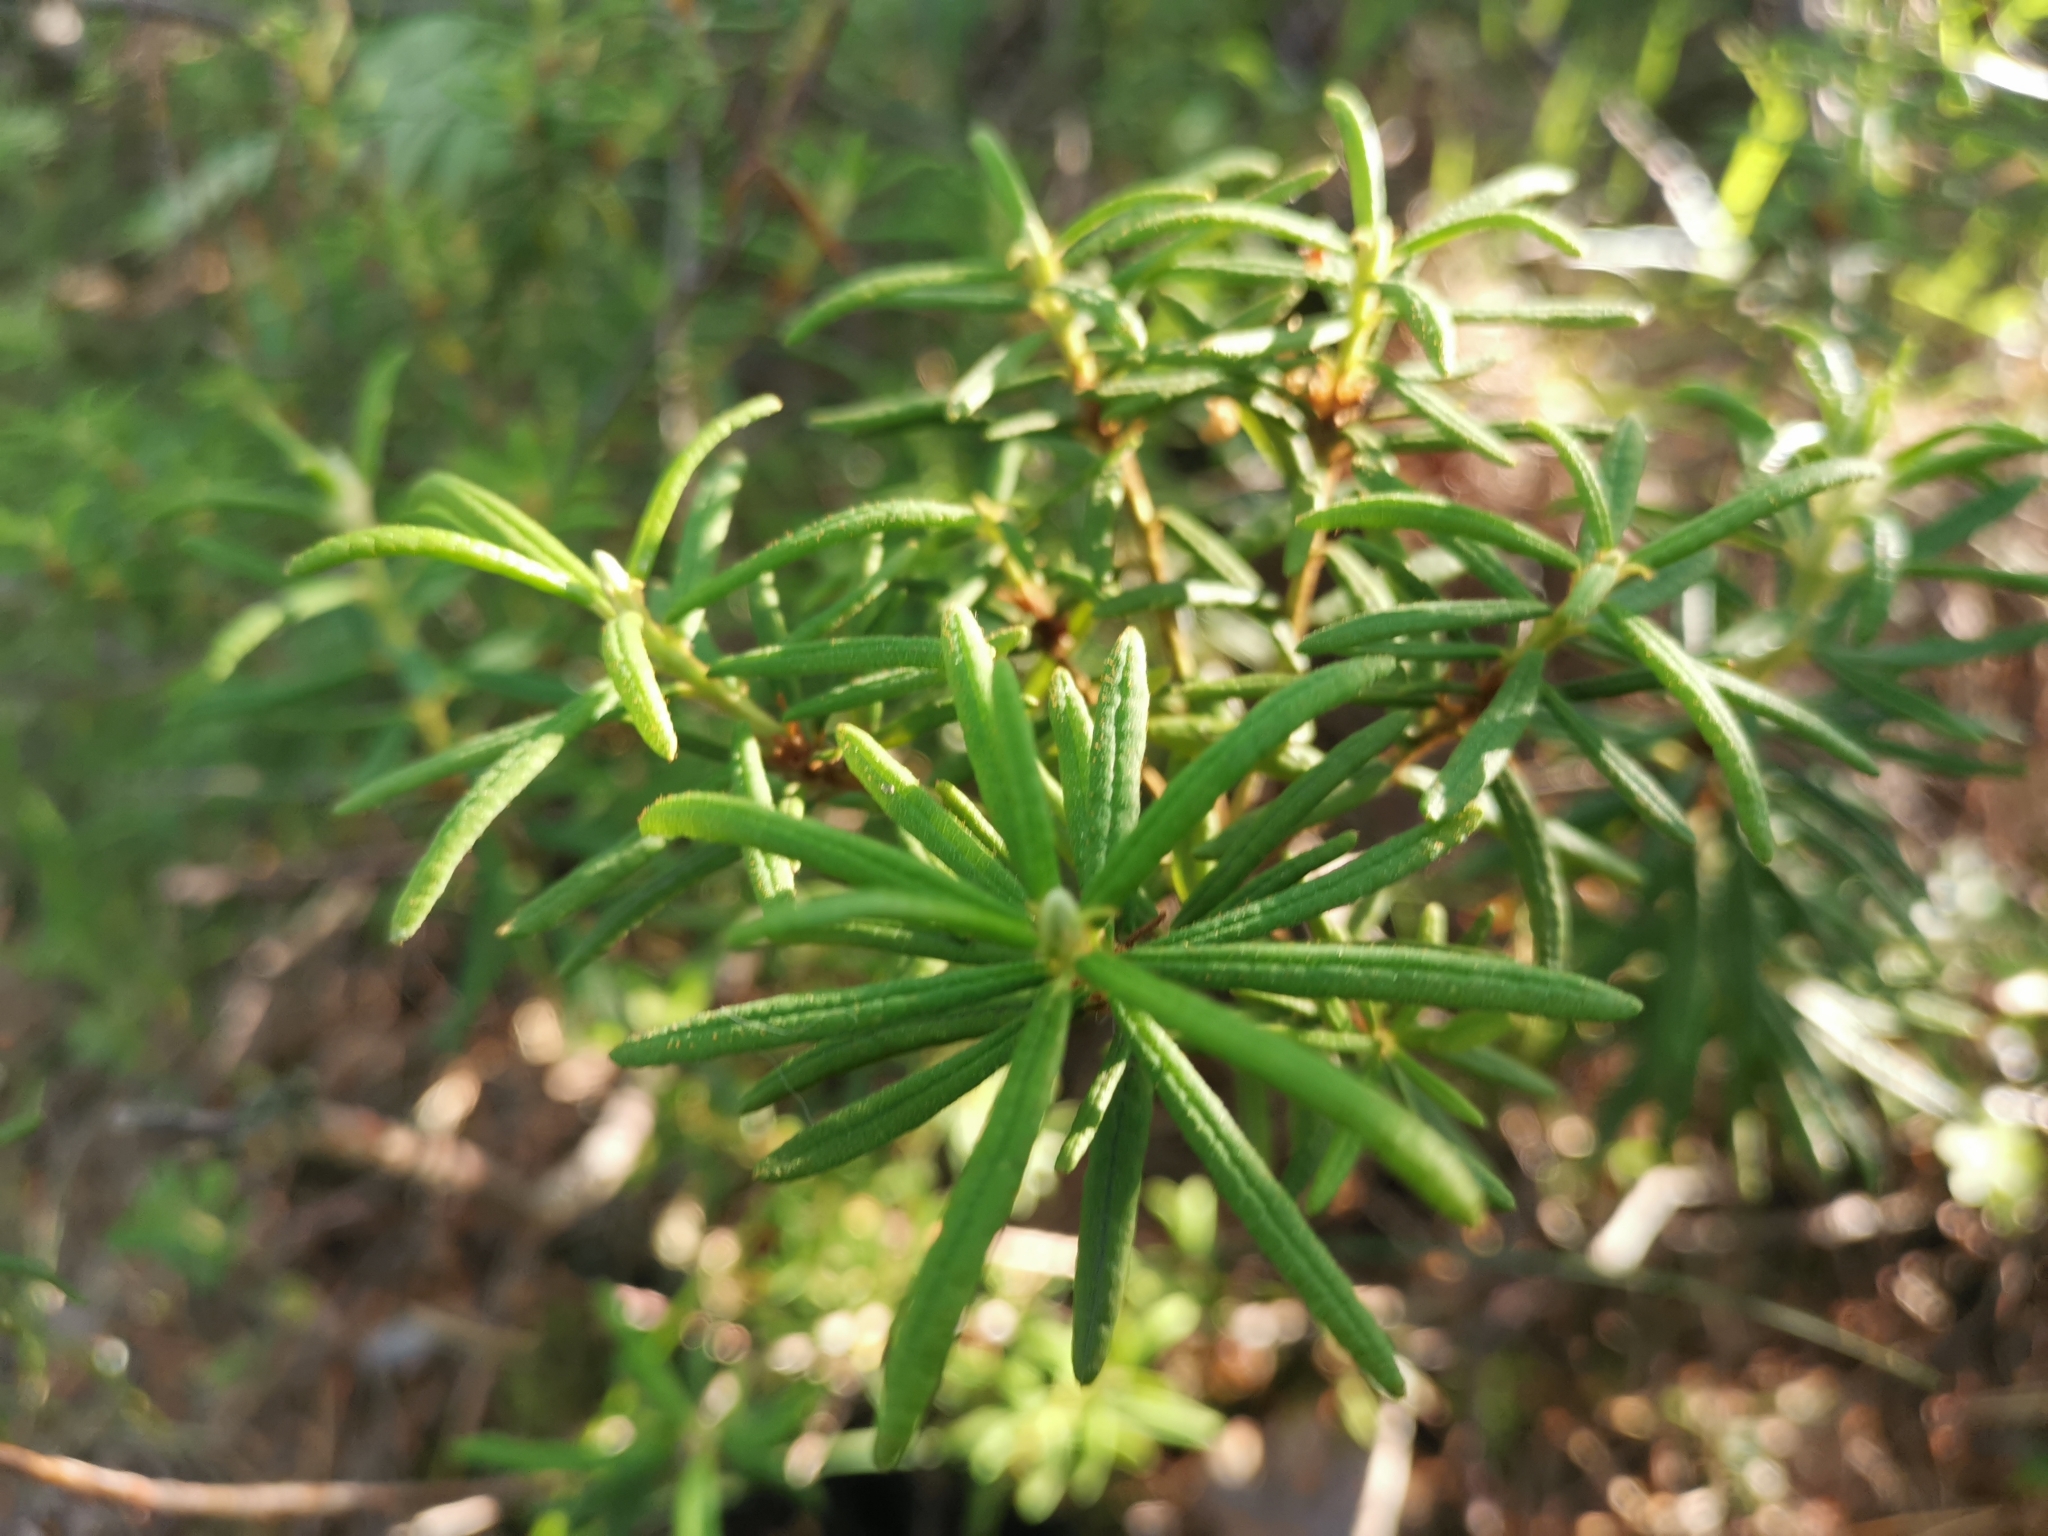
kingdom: Plantae
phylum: Tracheophyta
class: Magnoliopsida
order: Ericales
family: Ericaceae
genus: Rhododendron
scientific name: Rhododendron tomentosum
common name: Marsh labrador tea
